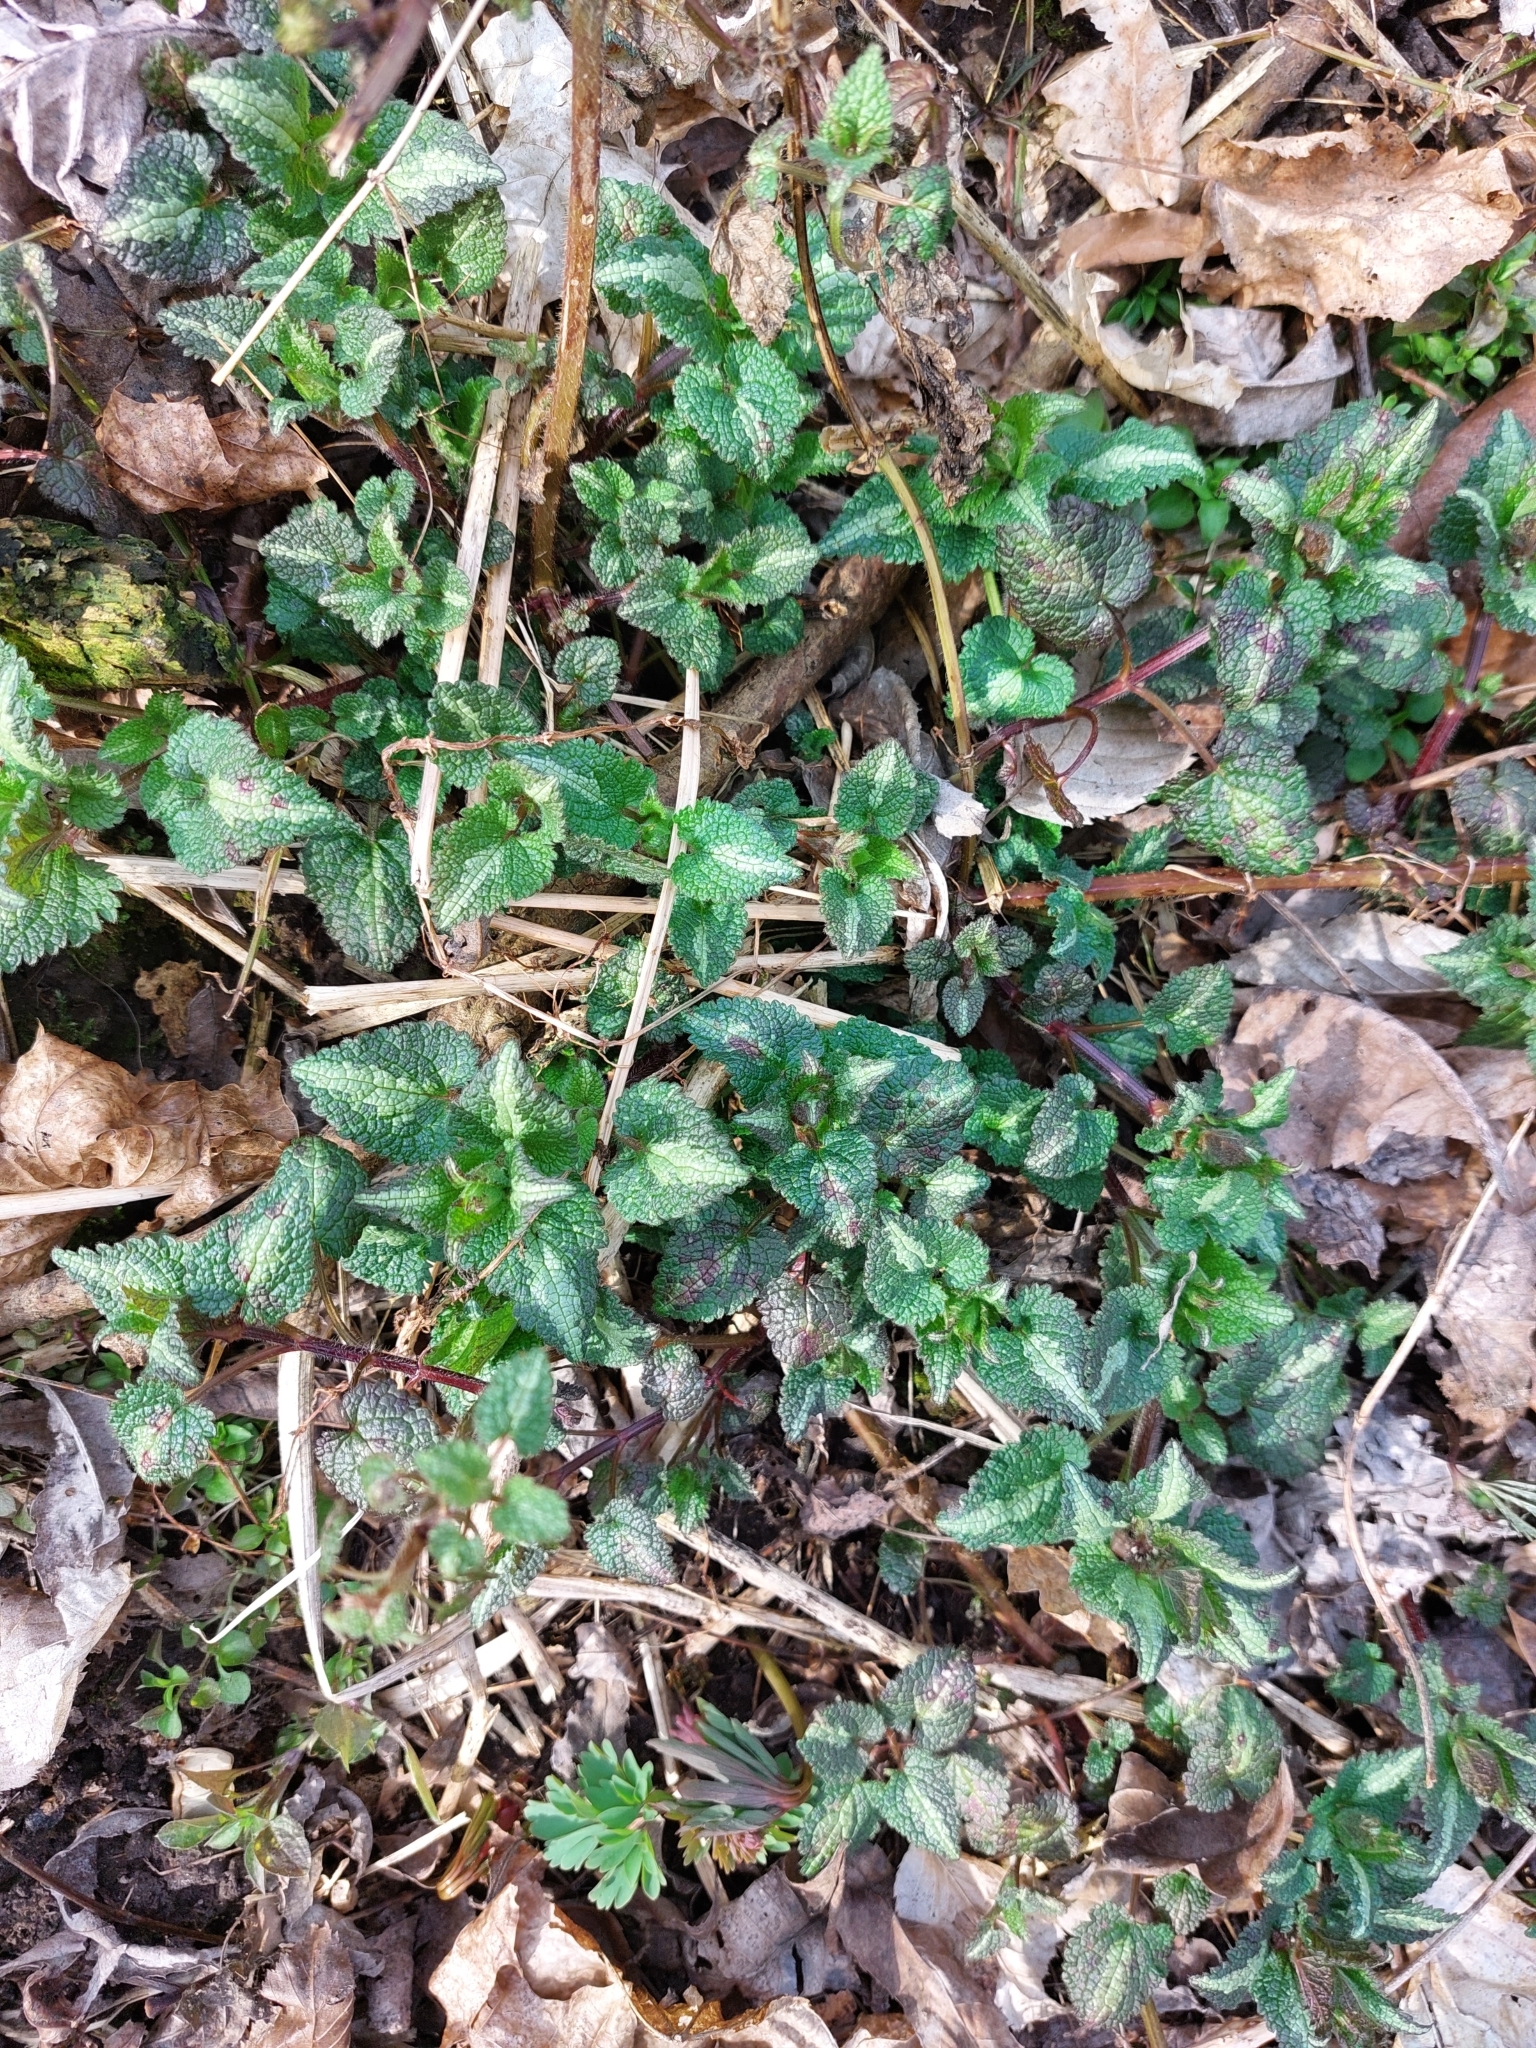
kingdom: Plantae
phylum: Tracheophyta
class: Magnoliopsida
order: Lamiales
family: Lamiaceae
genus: Lamium
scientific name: Lamium maculatum
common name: Spotted dead-nettle
